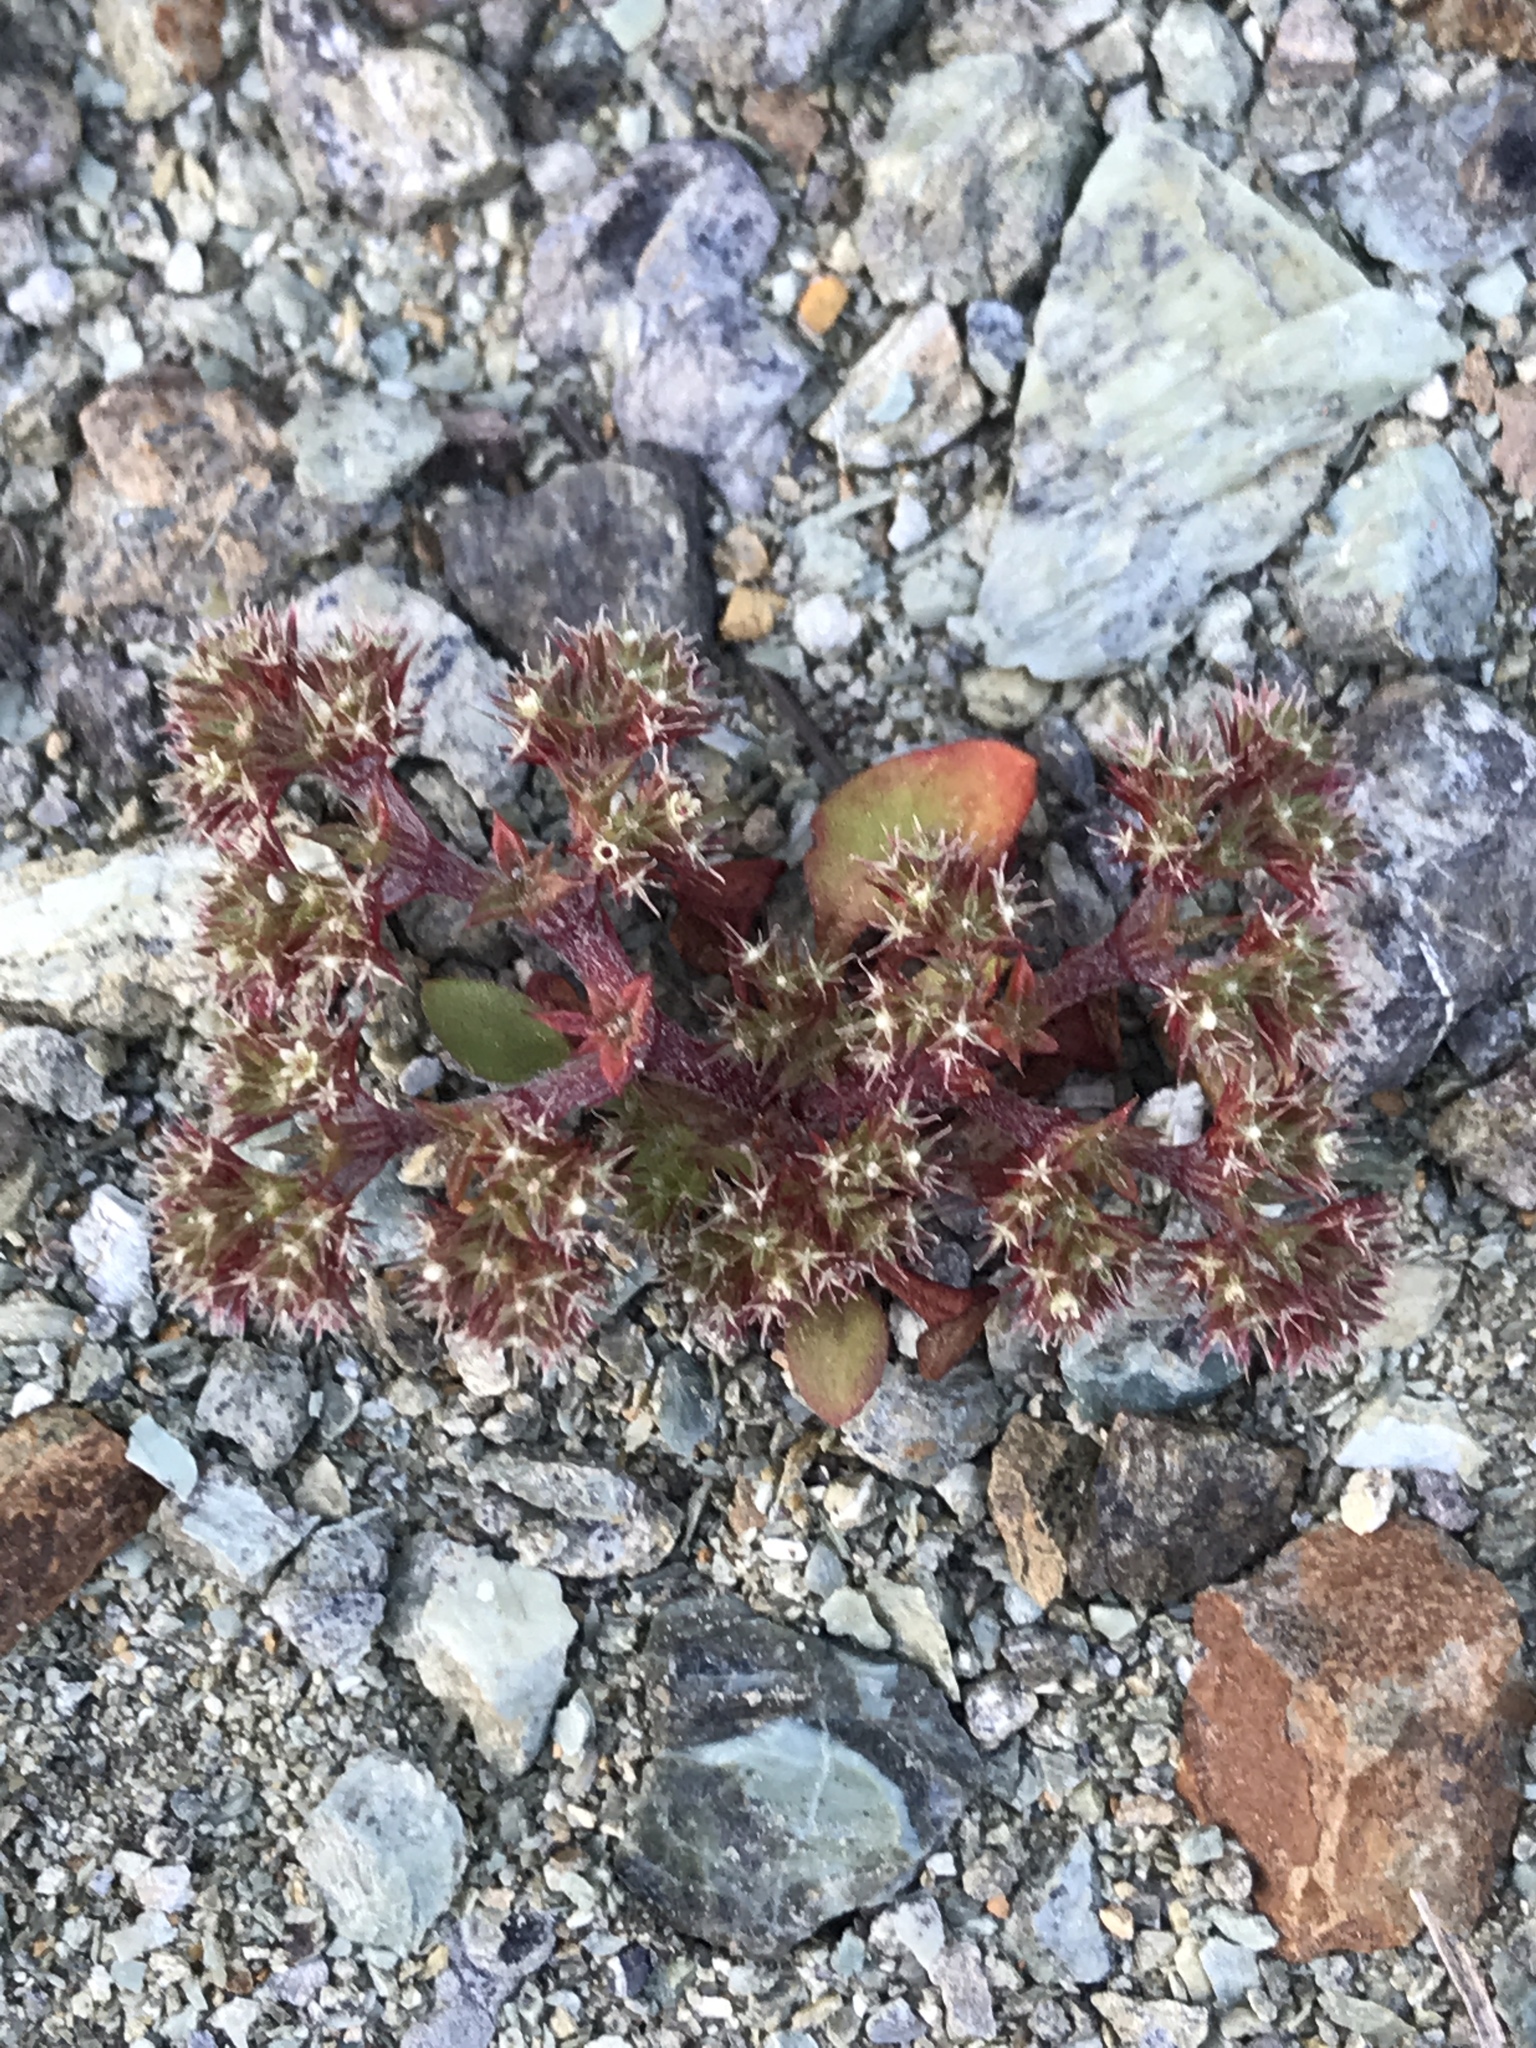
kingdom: Plantae
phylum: Tracheophyta
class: Magnoliopsida
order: Caryophyllales
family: Polygonaceae
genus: Chorizanthe
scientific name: Chorizanthe aphanantha
